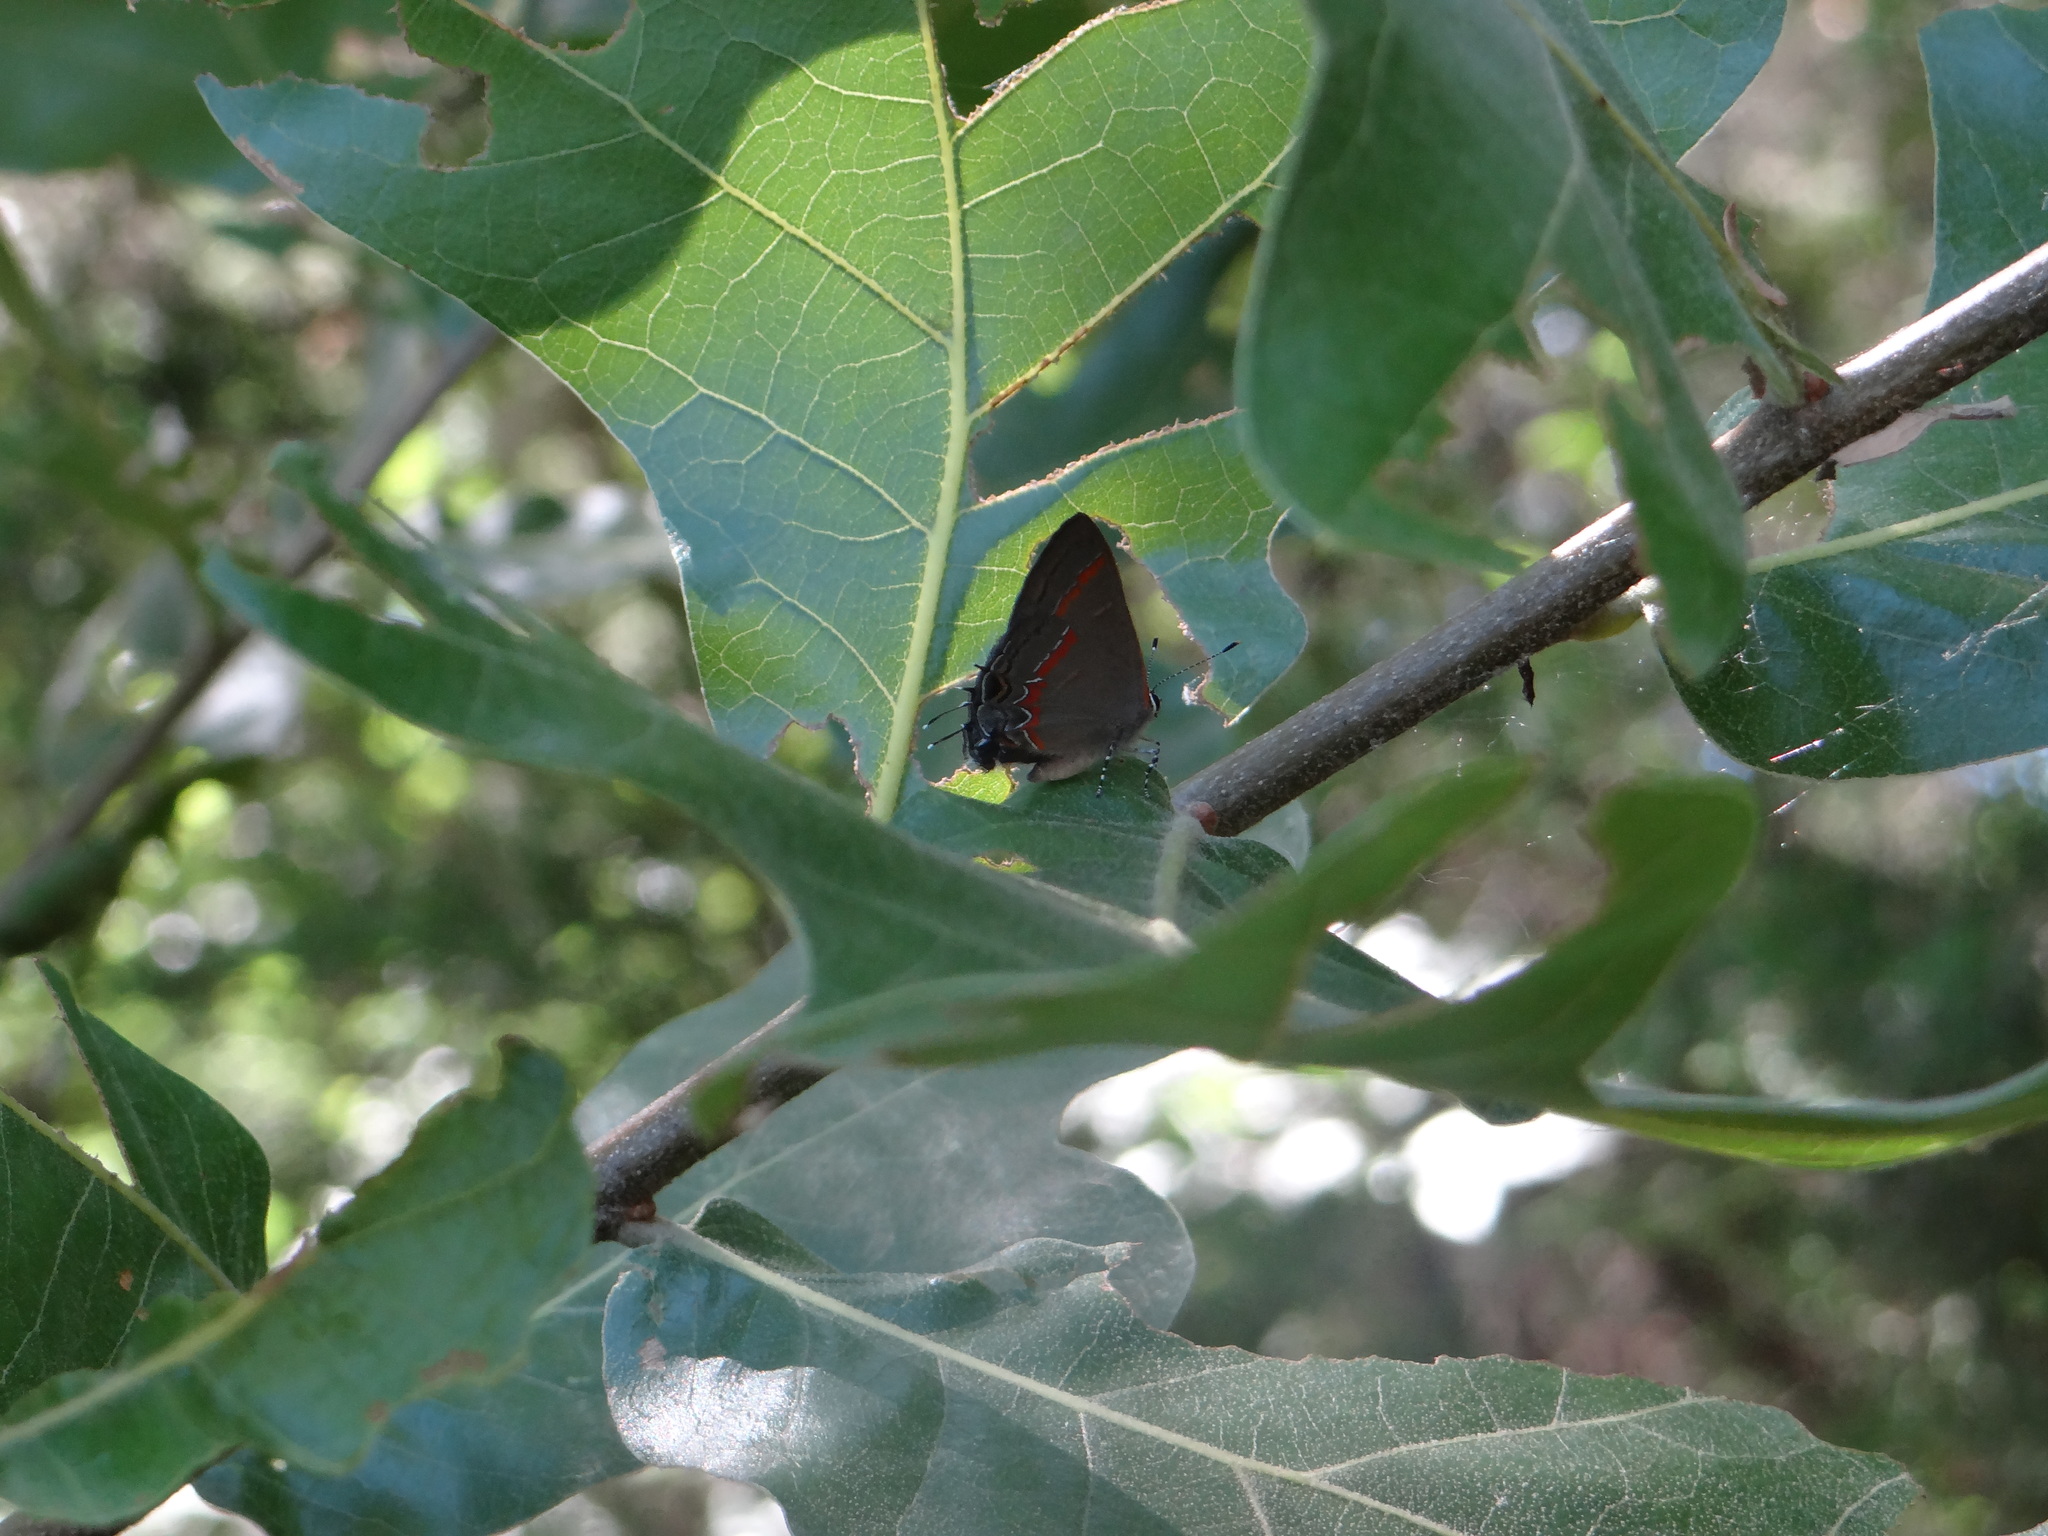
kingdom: Animalia
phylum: Arthropoda
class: Insecta
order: Lepidoptera
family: Lycaenidae
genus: Calycopis
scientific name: Calycopis cecrops
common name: Red-banded hairstreak
